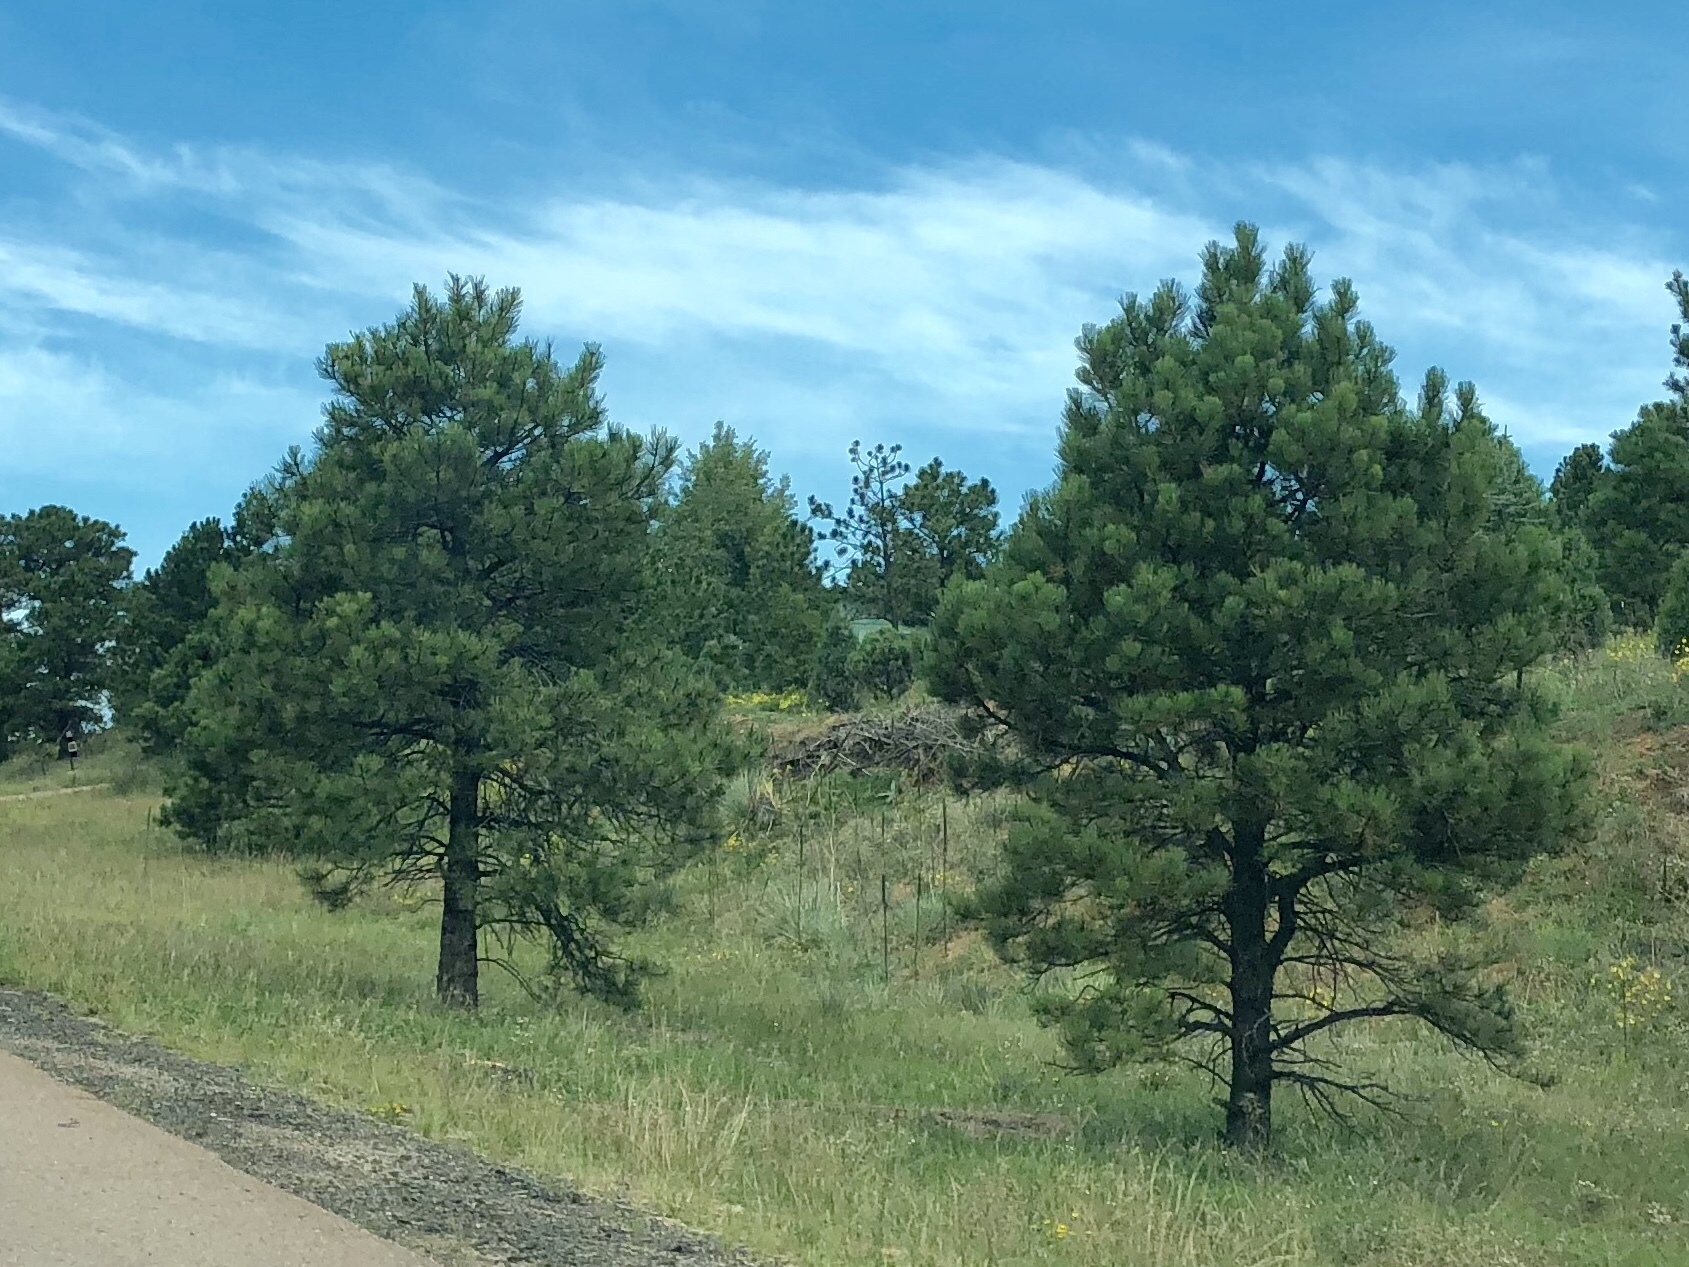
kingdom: Plantae
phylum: Tracheophyta
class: Pinopsida
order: Pinales
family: Pinaceae
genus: Pinus
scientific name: Pinus ponderosa
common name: Western yellow-pine
